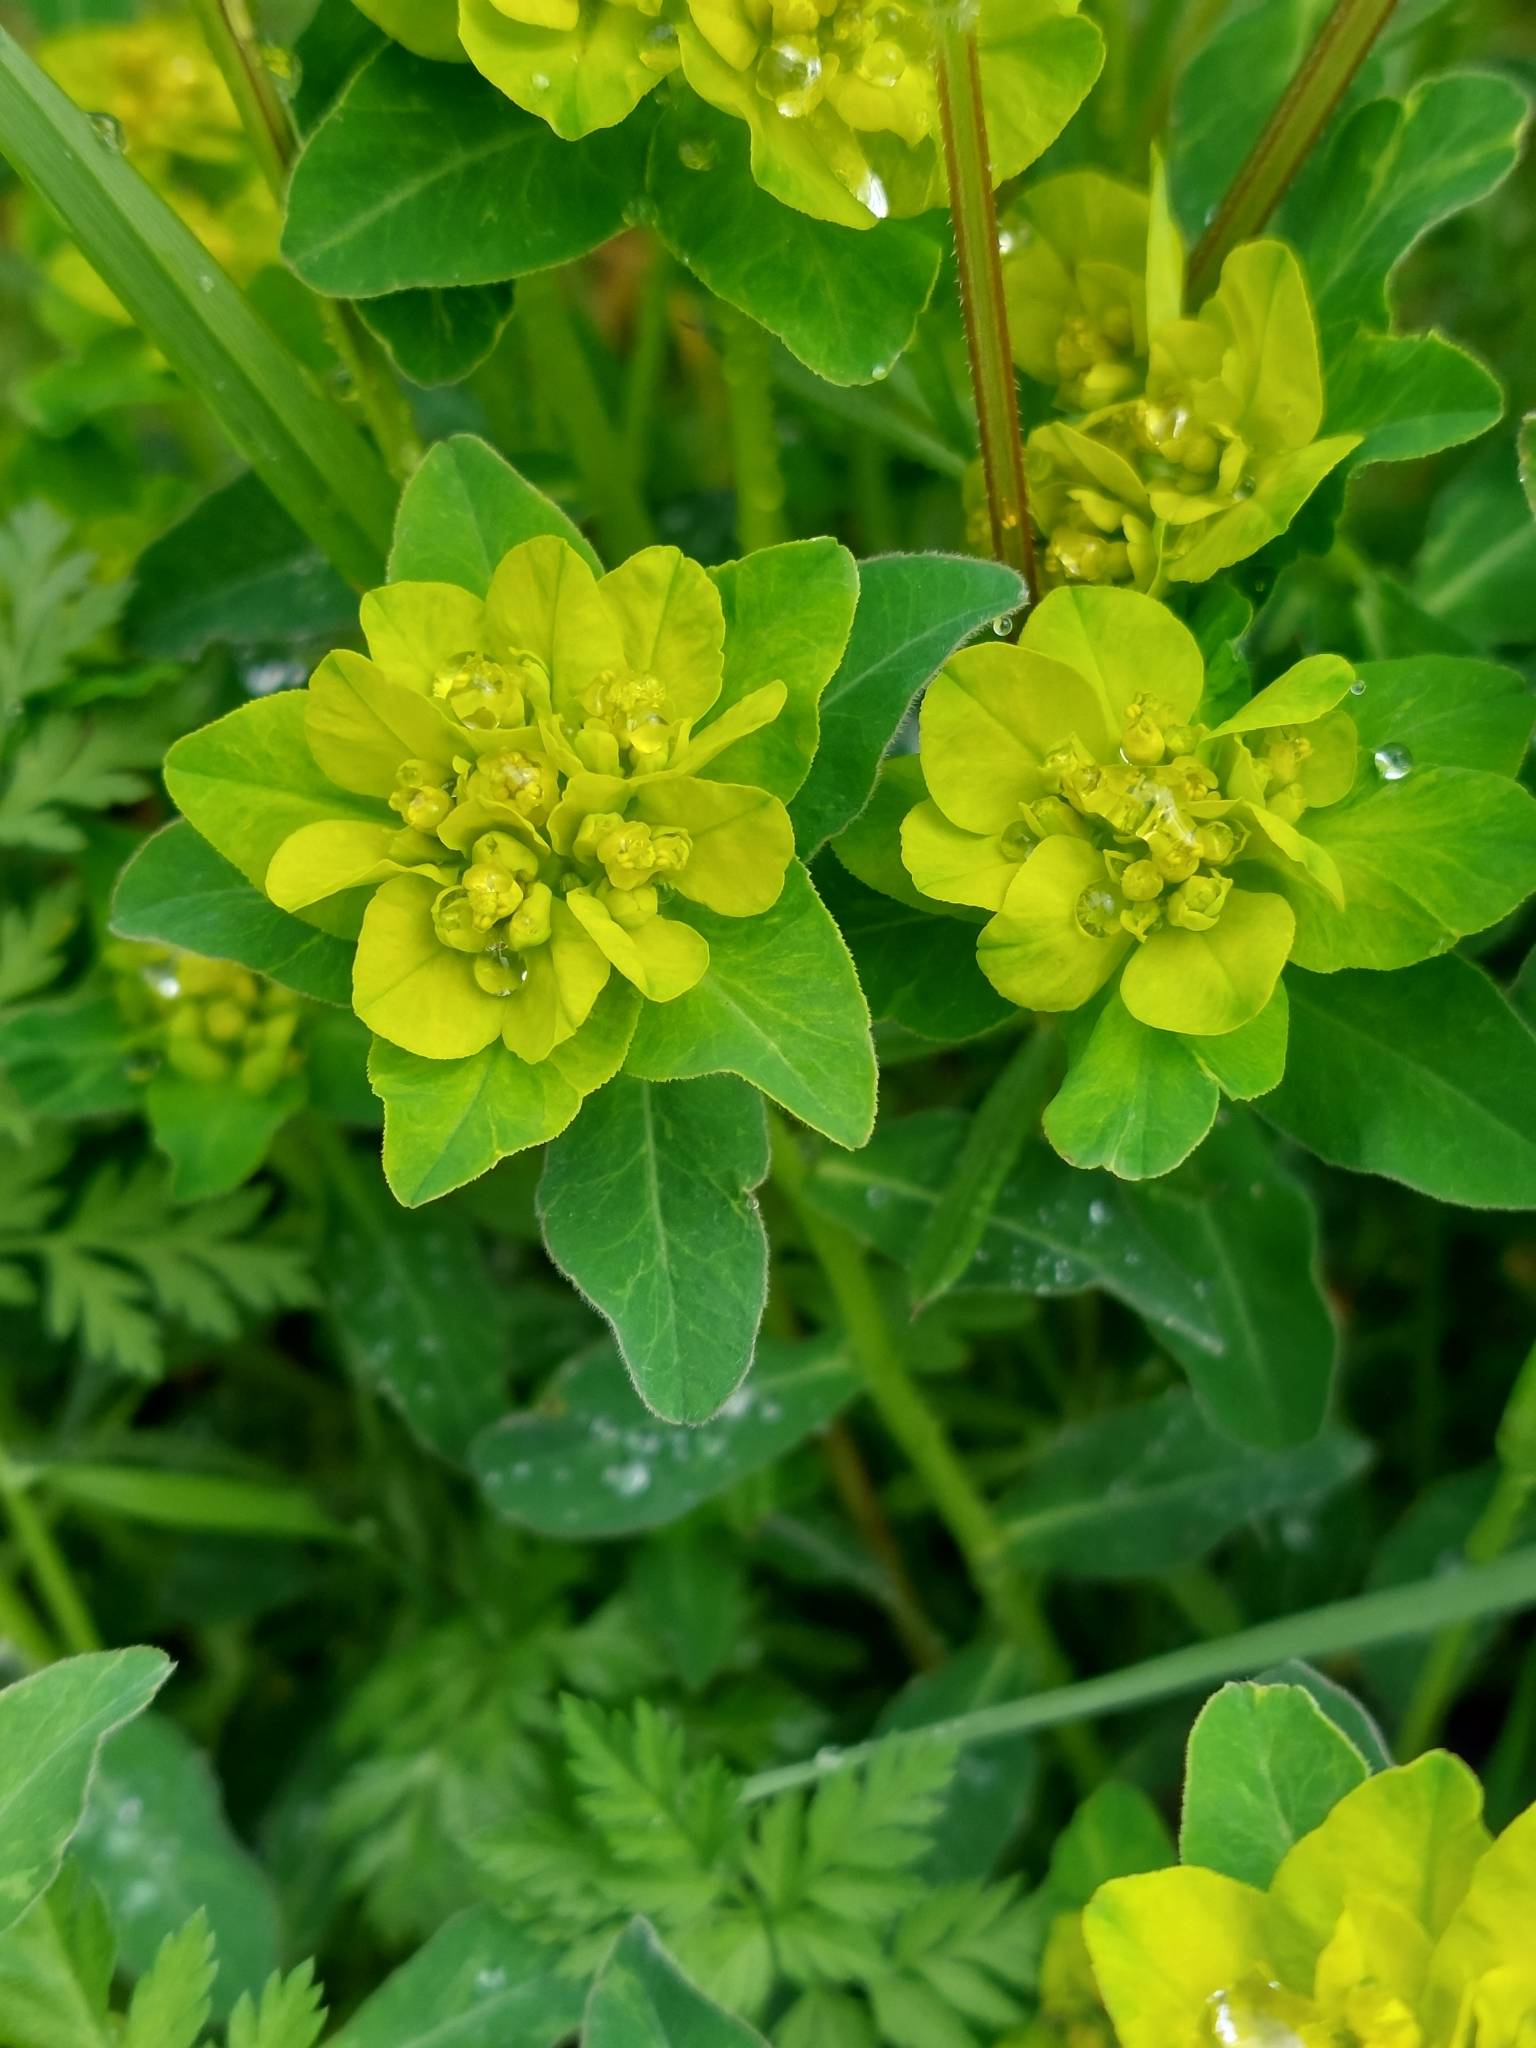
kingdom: Plantae
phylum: Tracheophyta
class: Magnoliopsida
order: Malpighiales
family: Euphorbiaceae
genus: Euphorbia
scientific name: Euphorbia helioscopia
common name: Sun spurge
